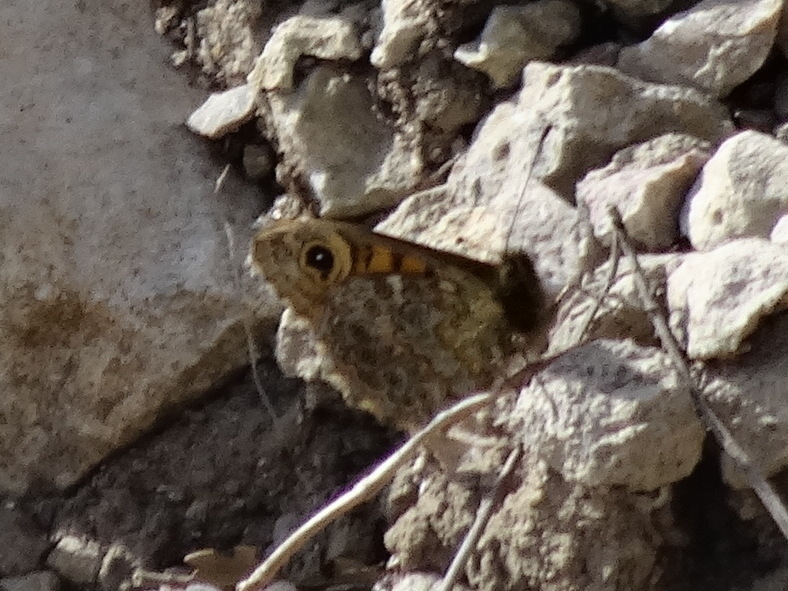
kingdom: Animalia
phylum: Arthropoda
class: Insecta
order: Lepidoptera
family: Nymphalidae
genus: Pararge
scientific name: Pararge Lasiommata megera
